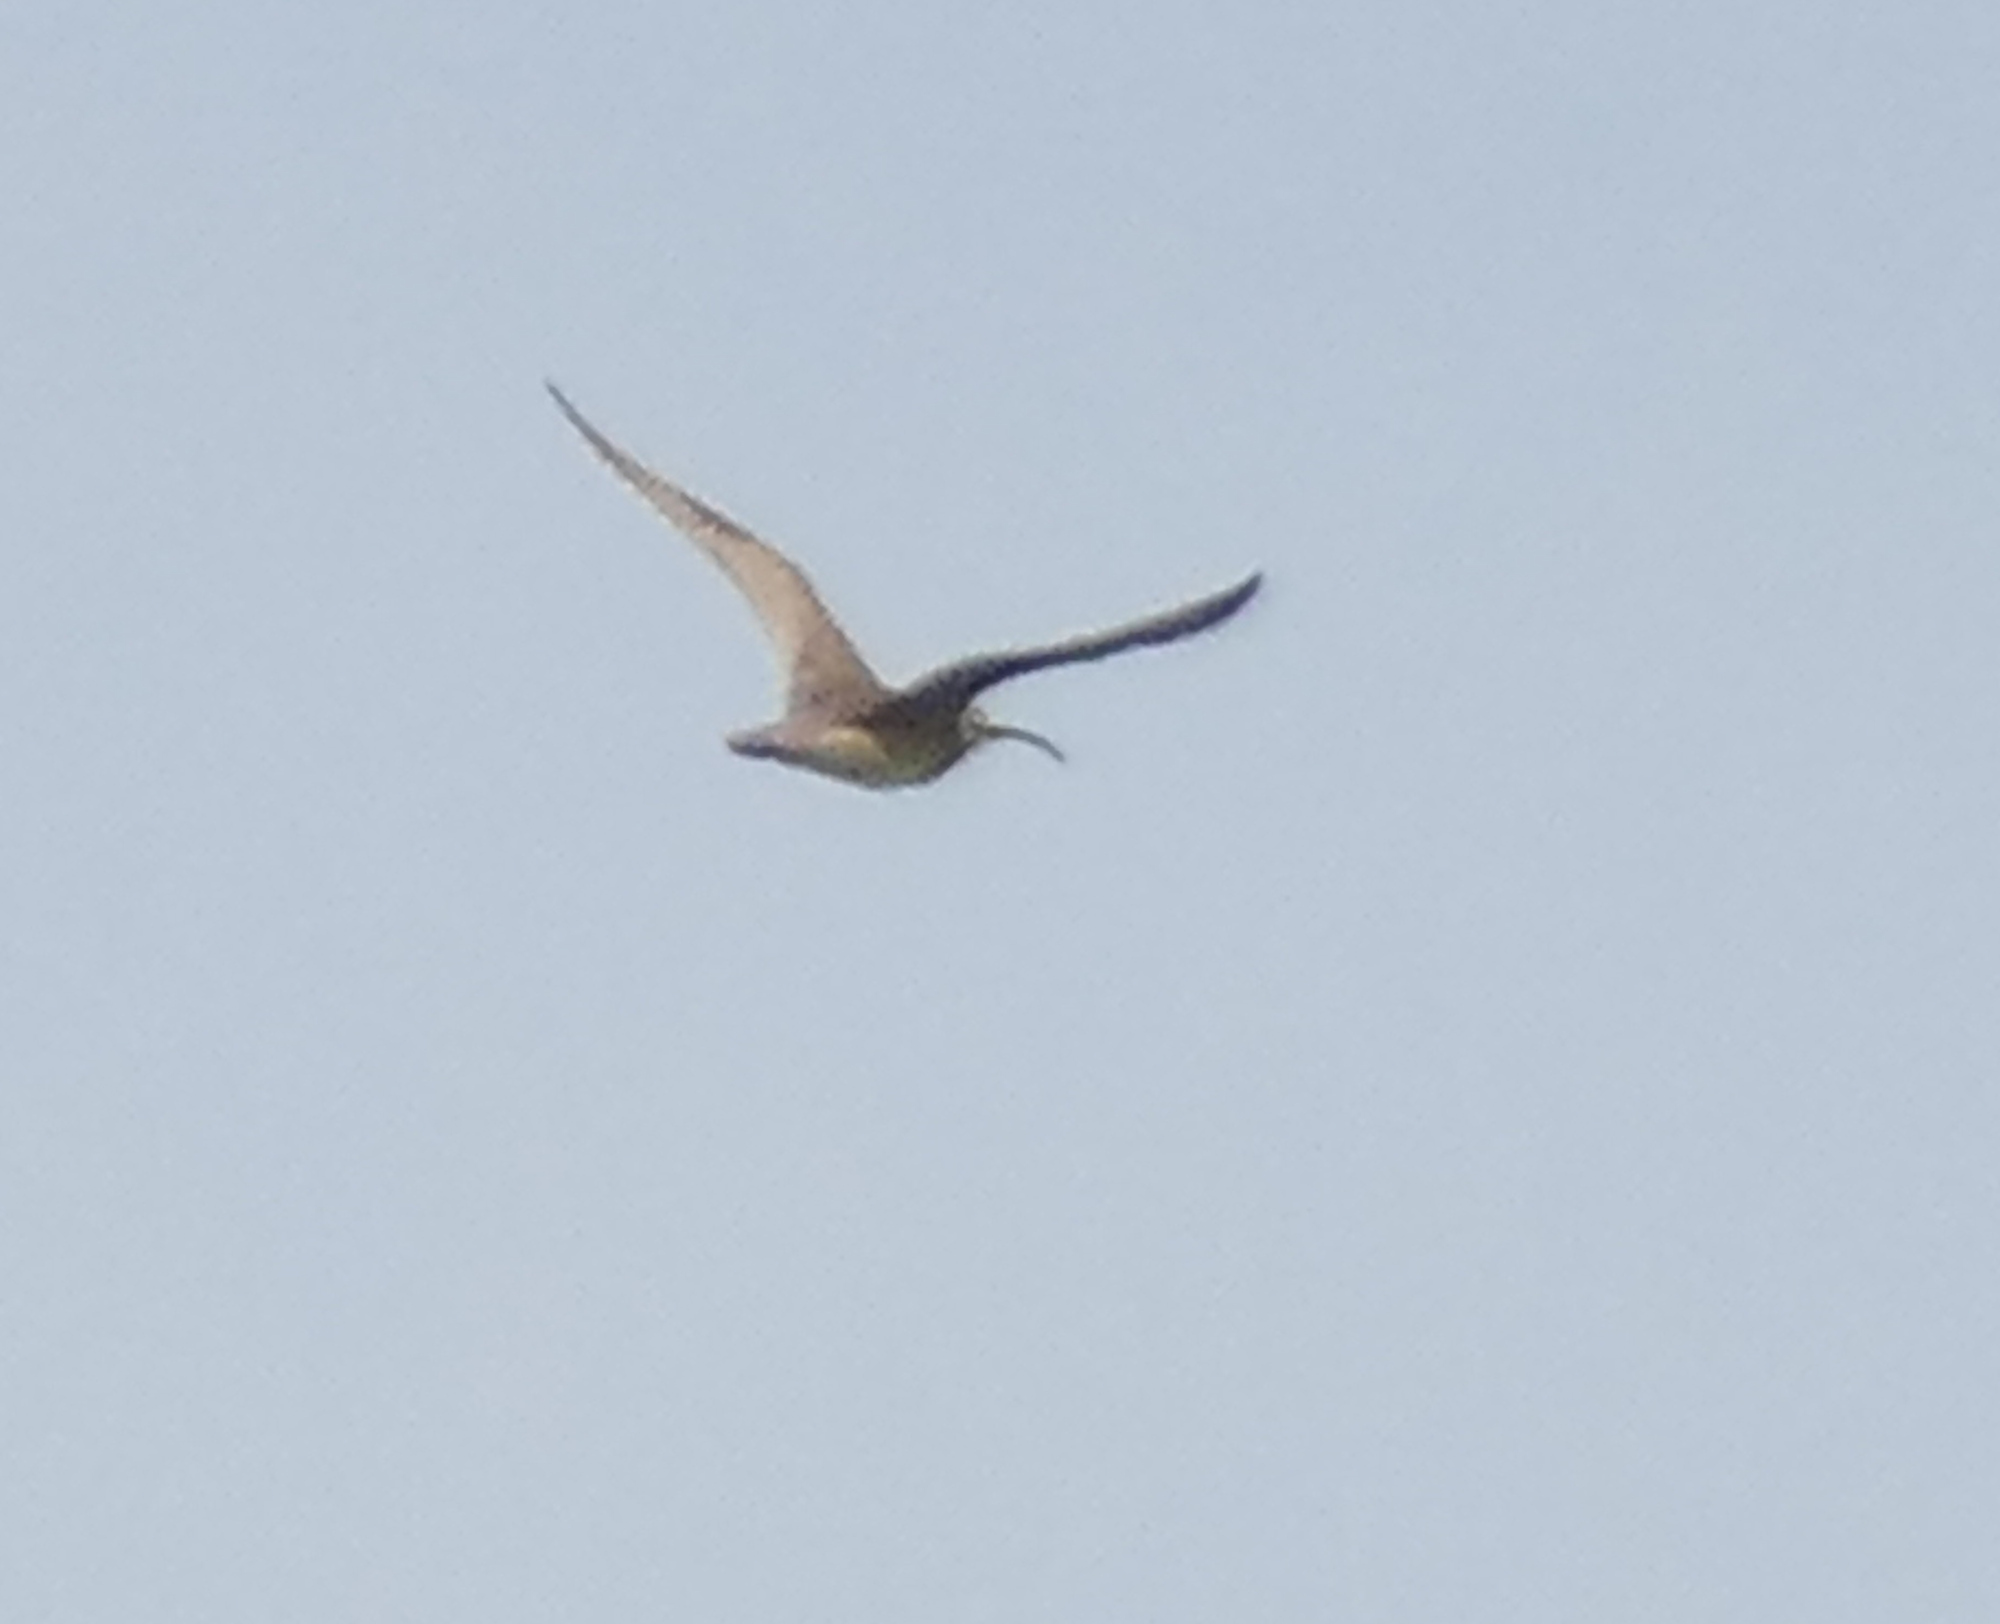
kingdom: Animalia
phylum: Chordata
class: Aves
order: Charadriiformes
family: Scolopacidae
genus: Numenius
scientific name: Numenius phaeopus
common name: Whimbrel
